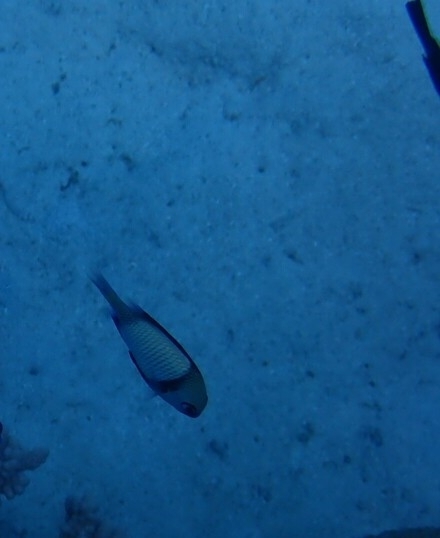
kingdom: Animalia
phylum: Chordata
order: Perciformes
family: Pomacentridae
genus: Dascyllus
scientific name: Dascyllus reticulatus
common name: Reticulated dascyllus
